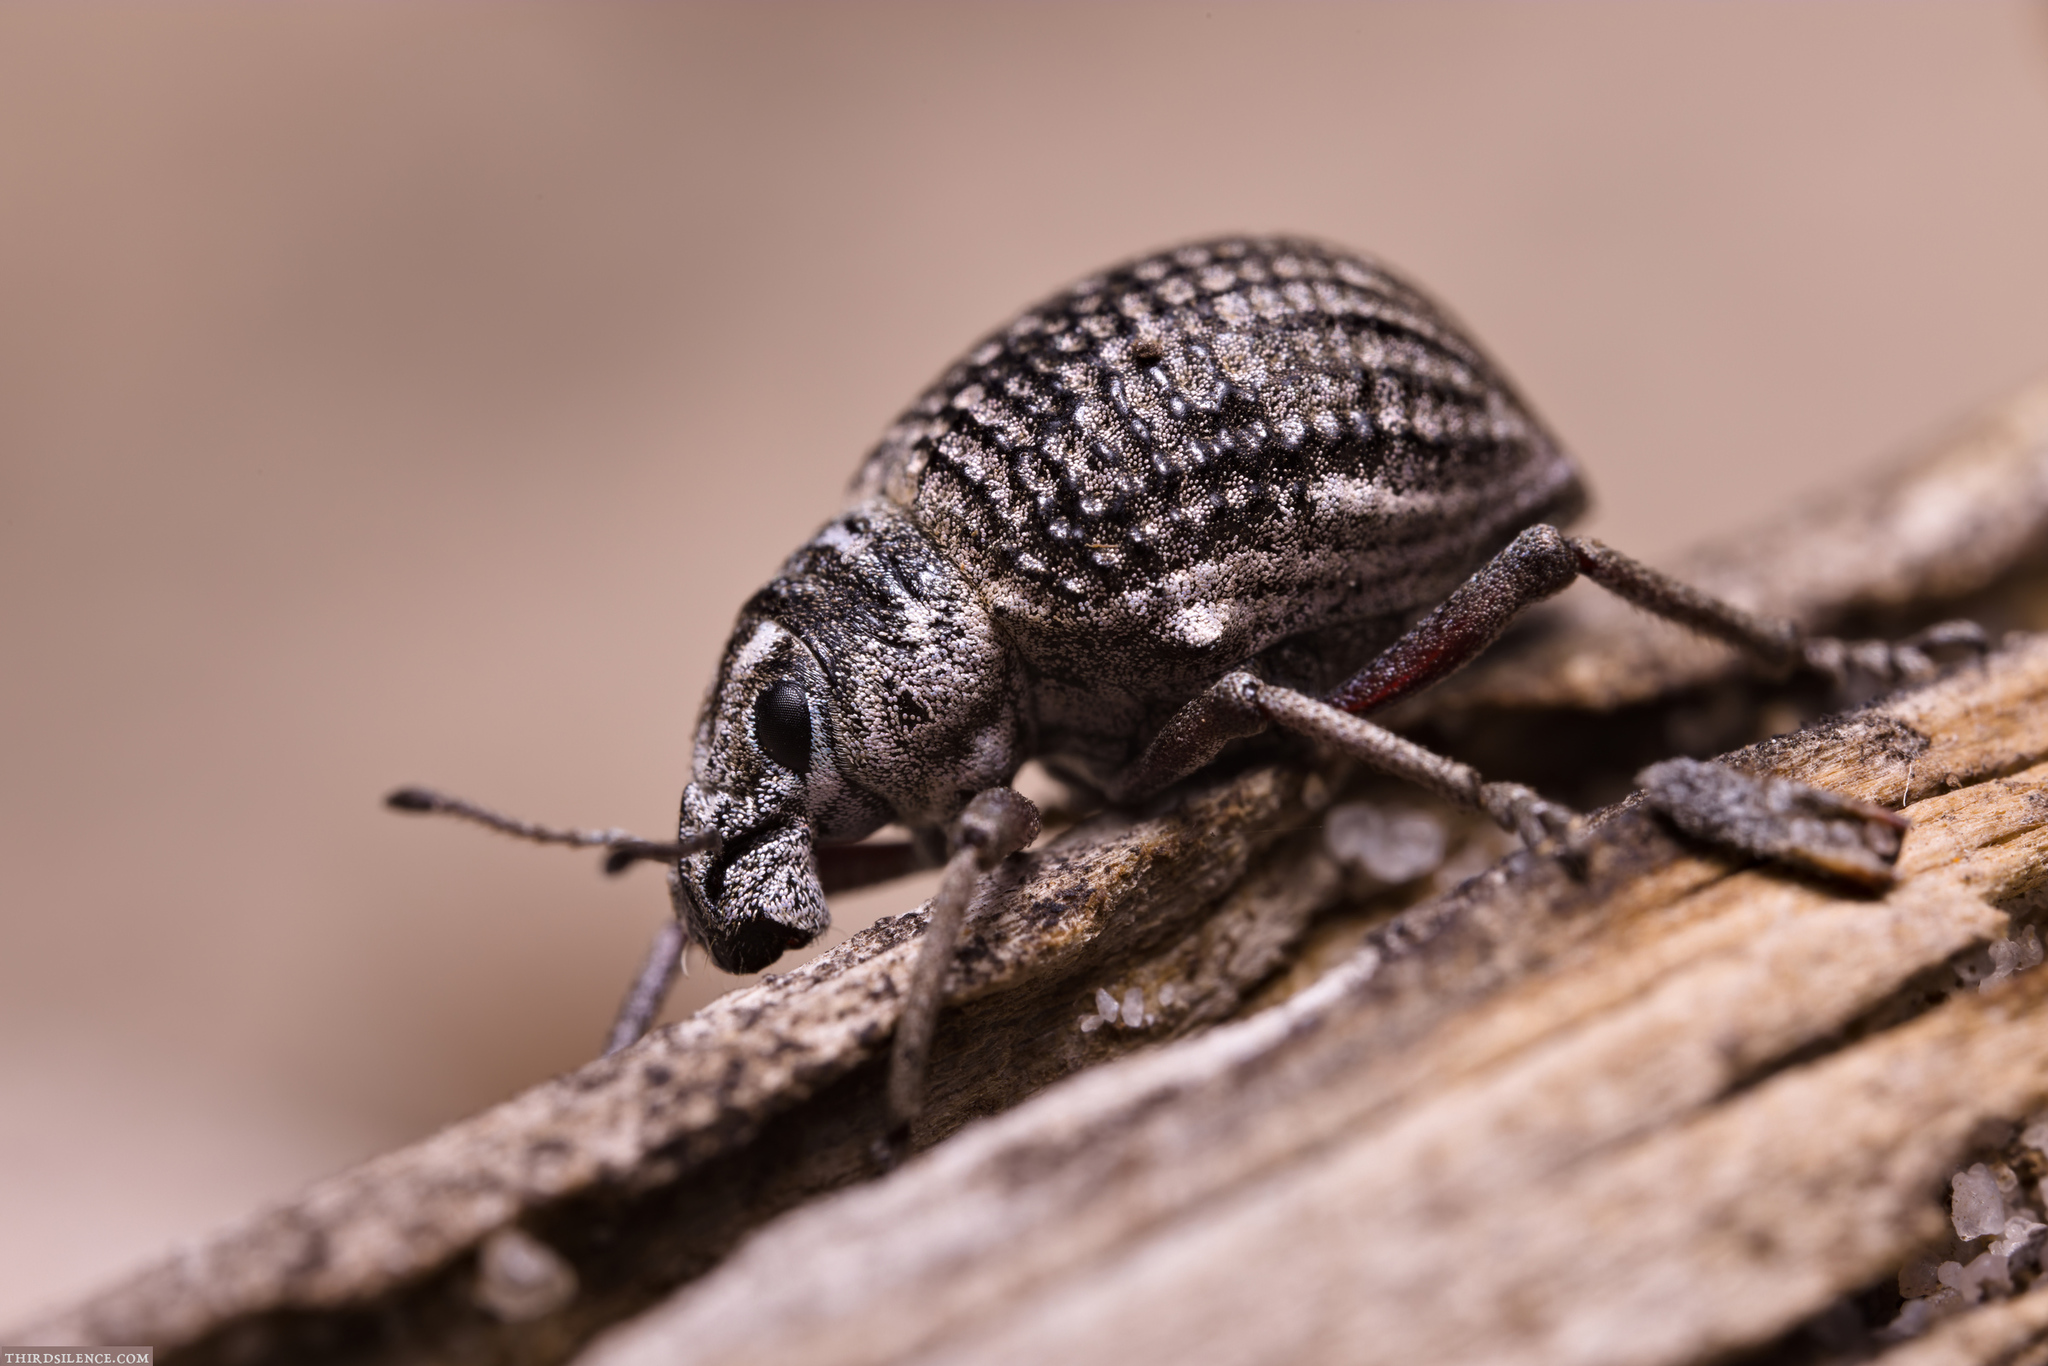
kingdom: Animalia
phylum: Arthropoda
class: Insecta
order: Coleoptera
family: Curculionidae
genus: Catasarcus
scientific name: Catasarcus transversalis
